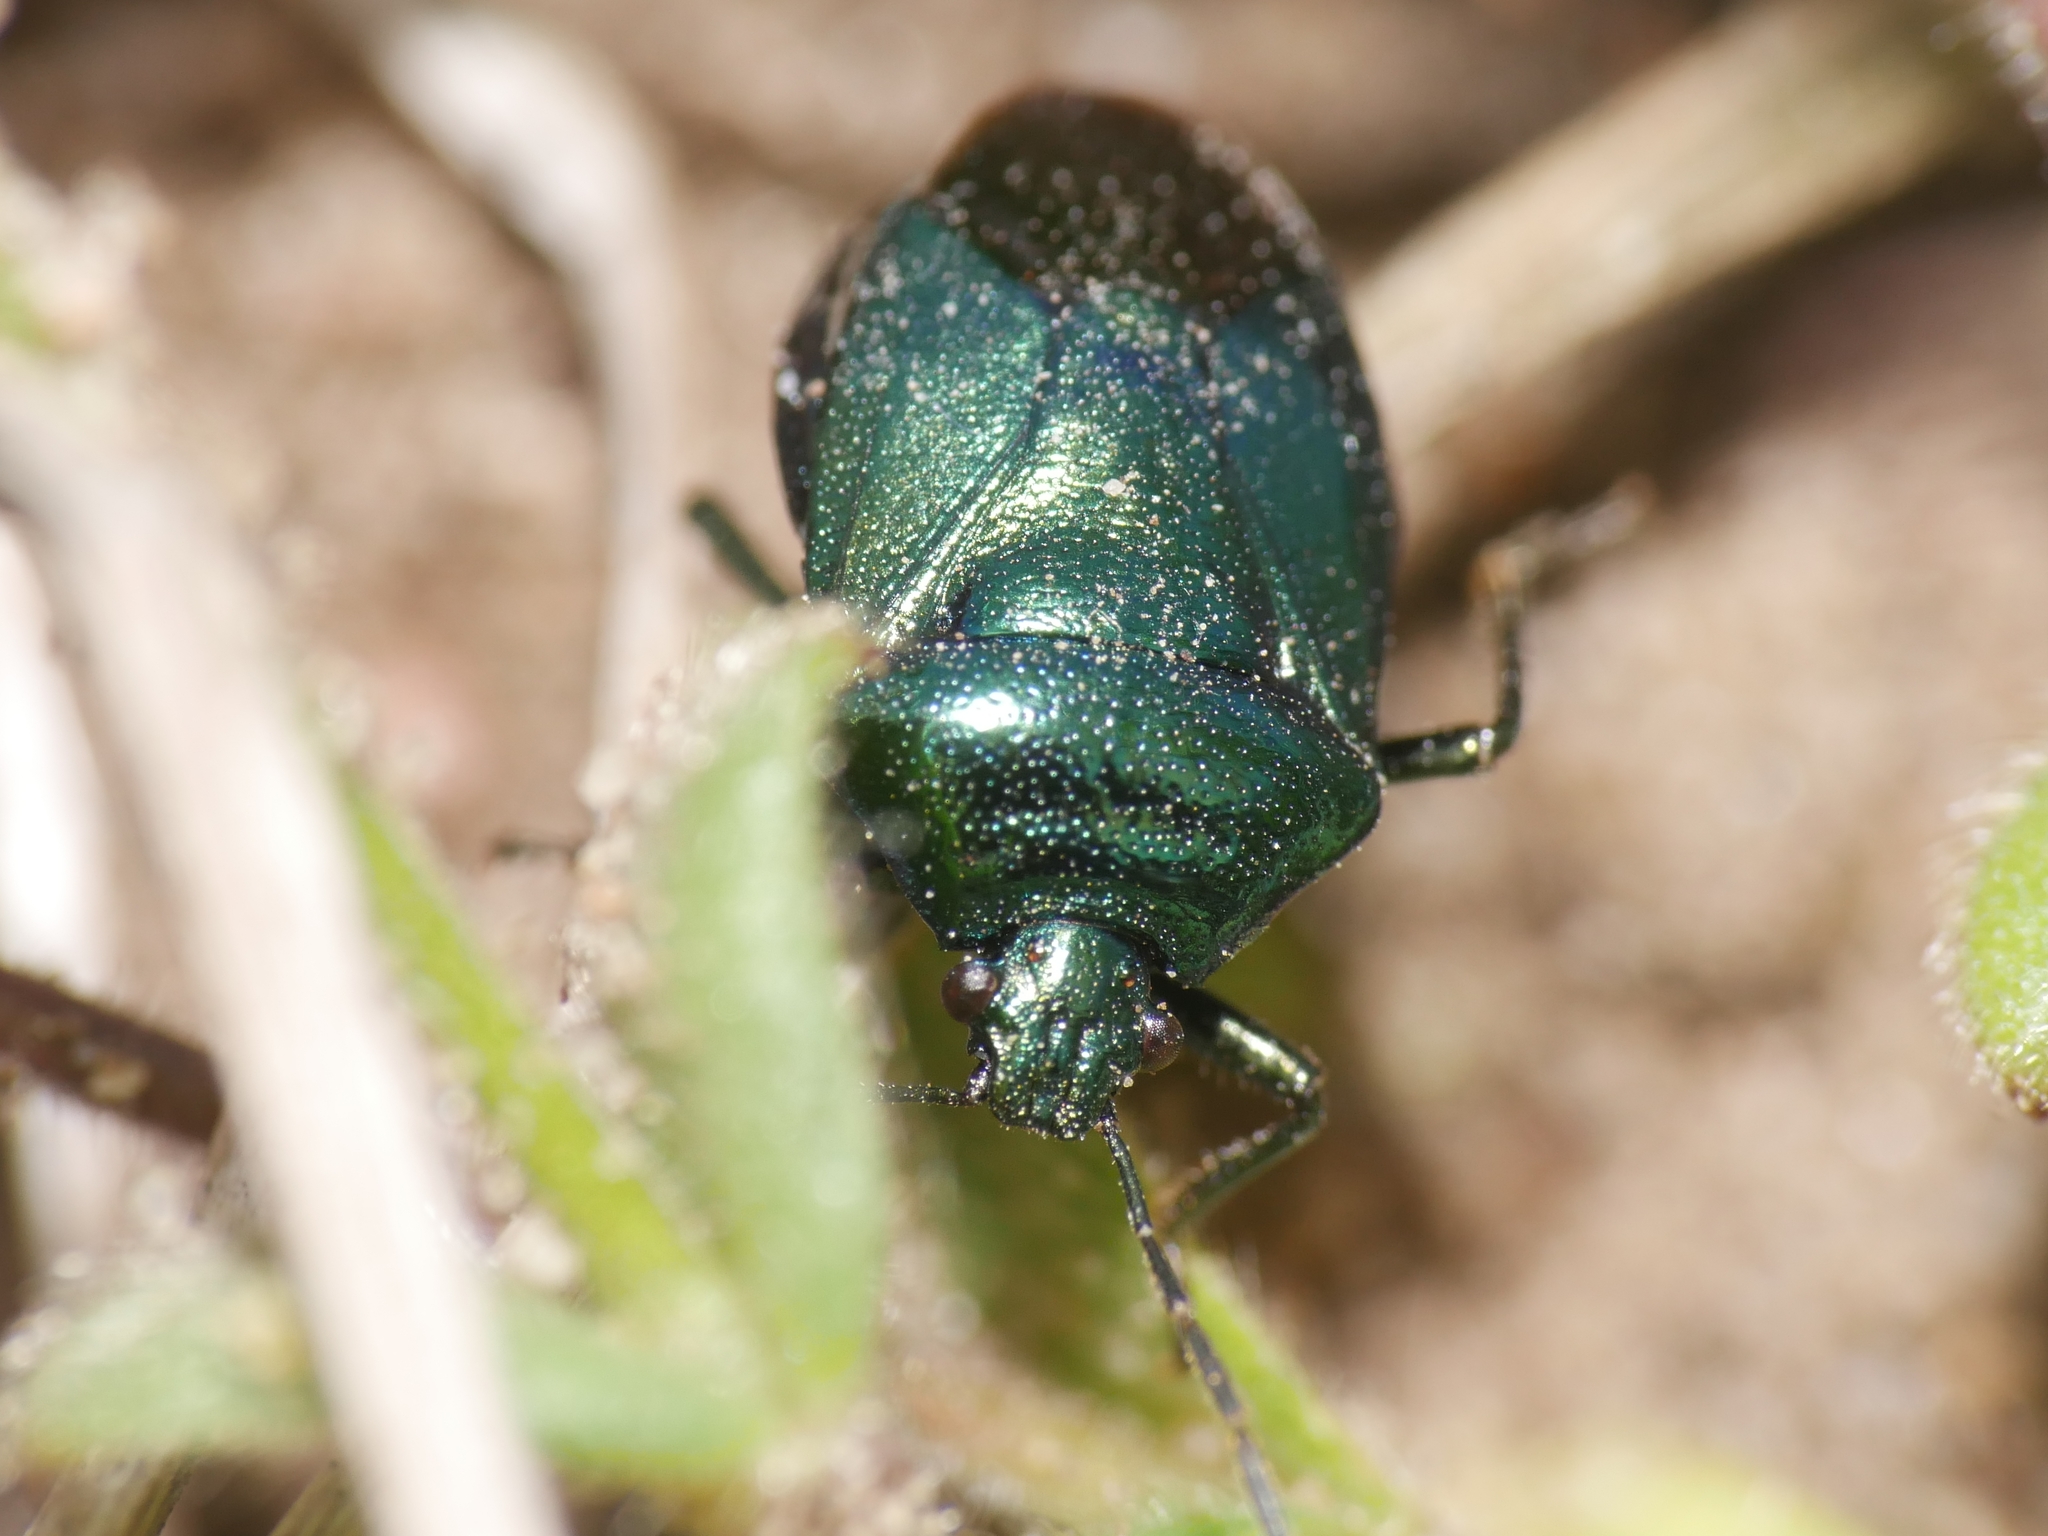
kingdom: Animalia
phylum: Arthropoda
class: Insecta
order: Hemiptera
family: Pentatomidae
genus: Zicrona
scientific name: Zicrona caerulea
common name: Blue shieldbug
